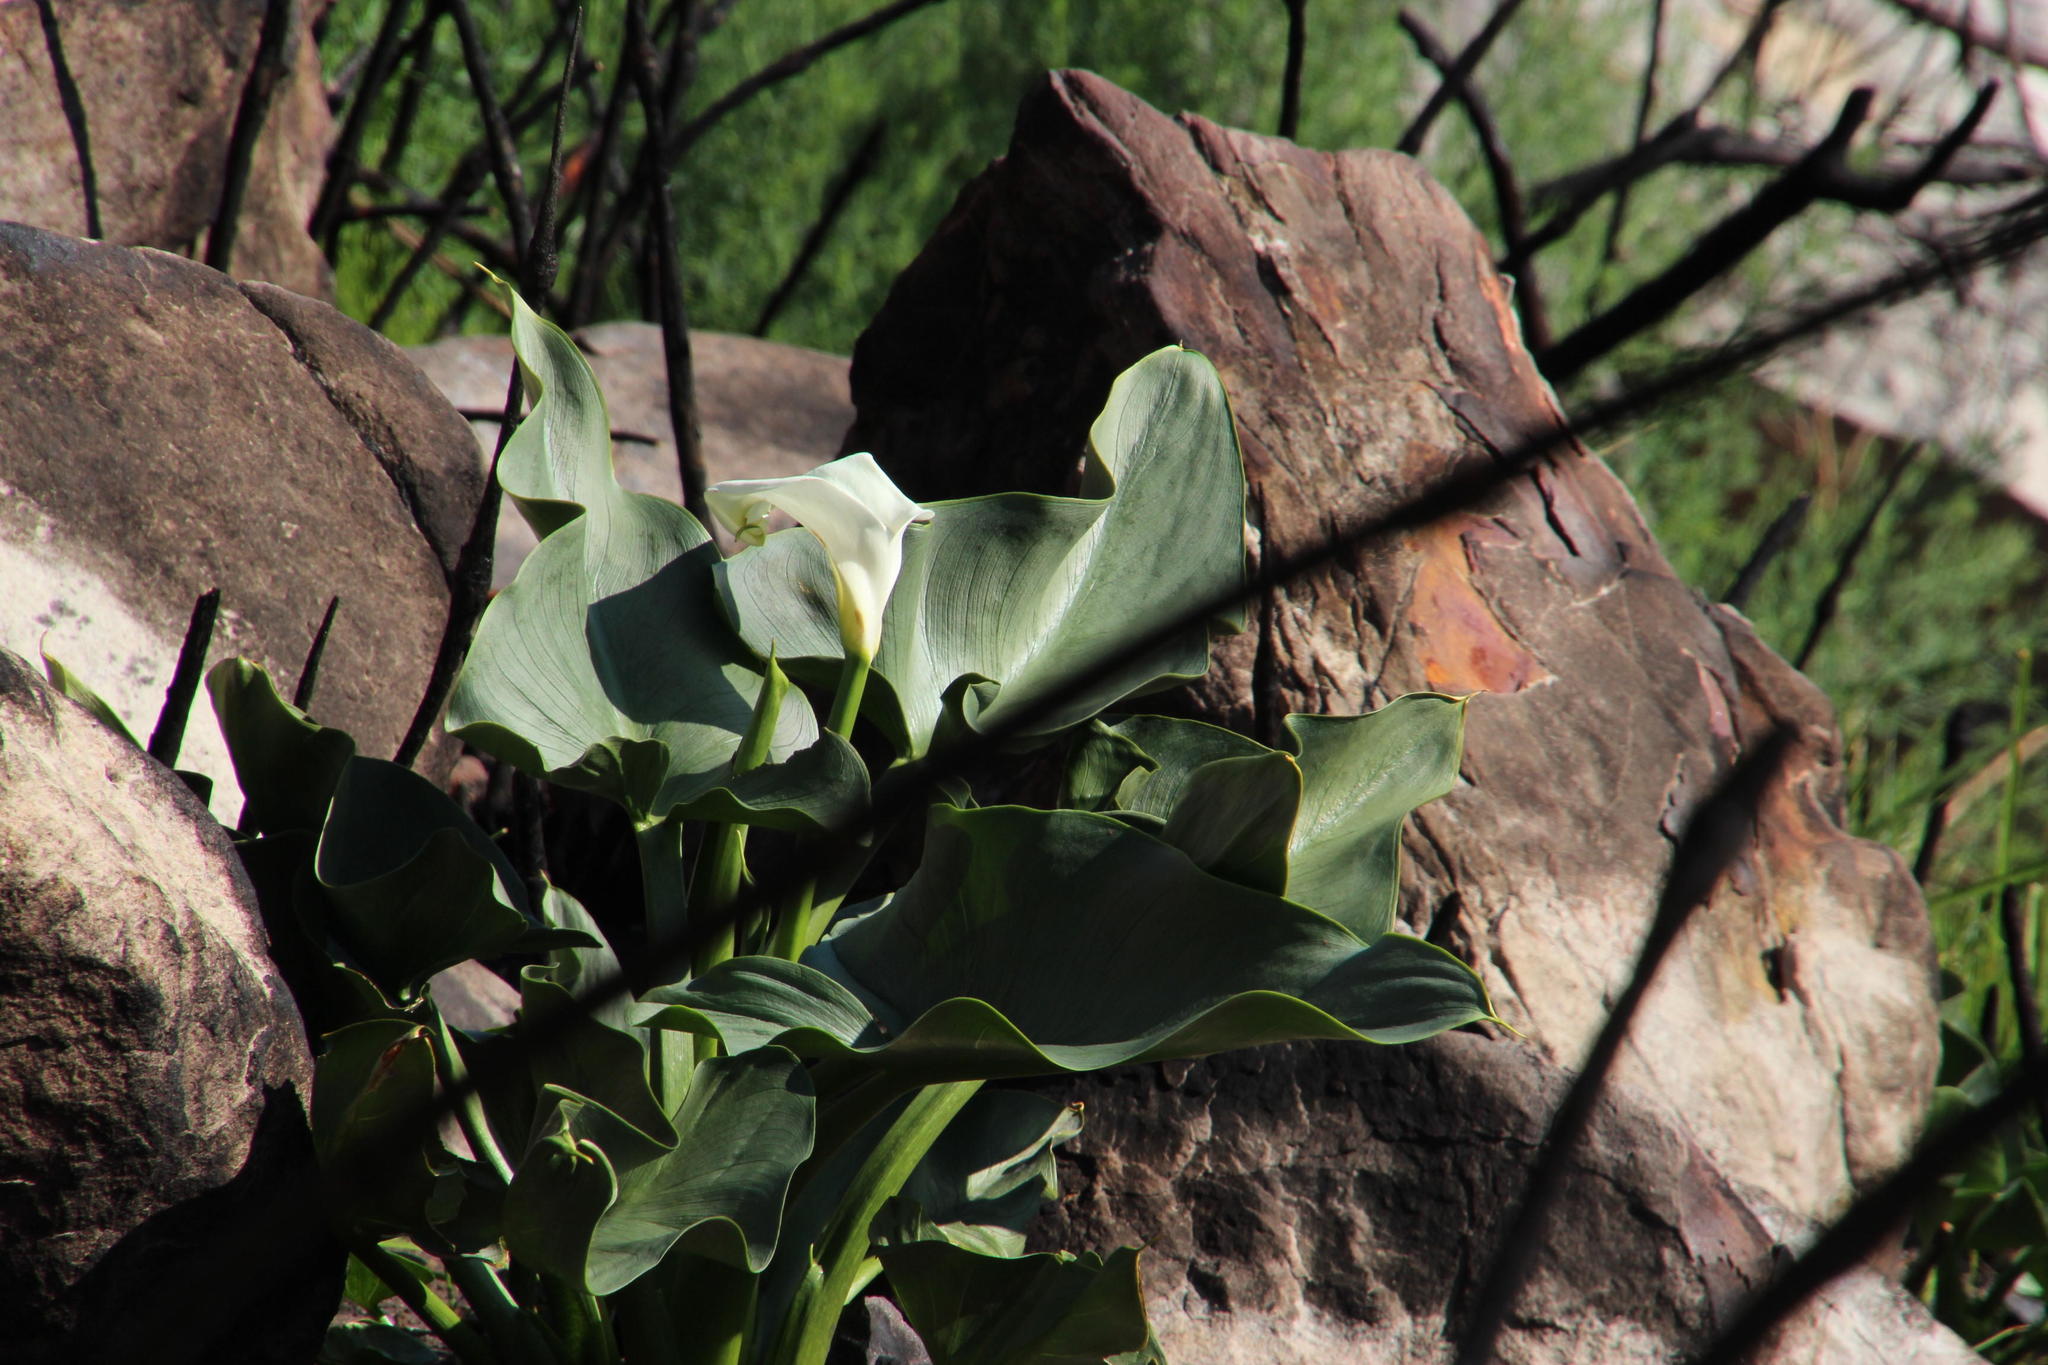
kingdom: Plantae
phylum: Tracheophyta
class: Liliopsida
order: Alismatales
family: Araceae
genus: Zantedeschia
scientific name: Zantedeschia aethiopica
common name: Altar-lily
